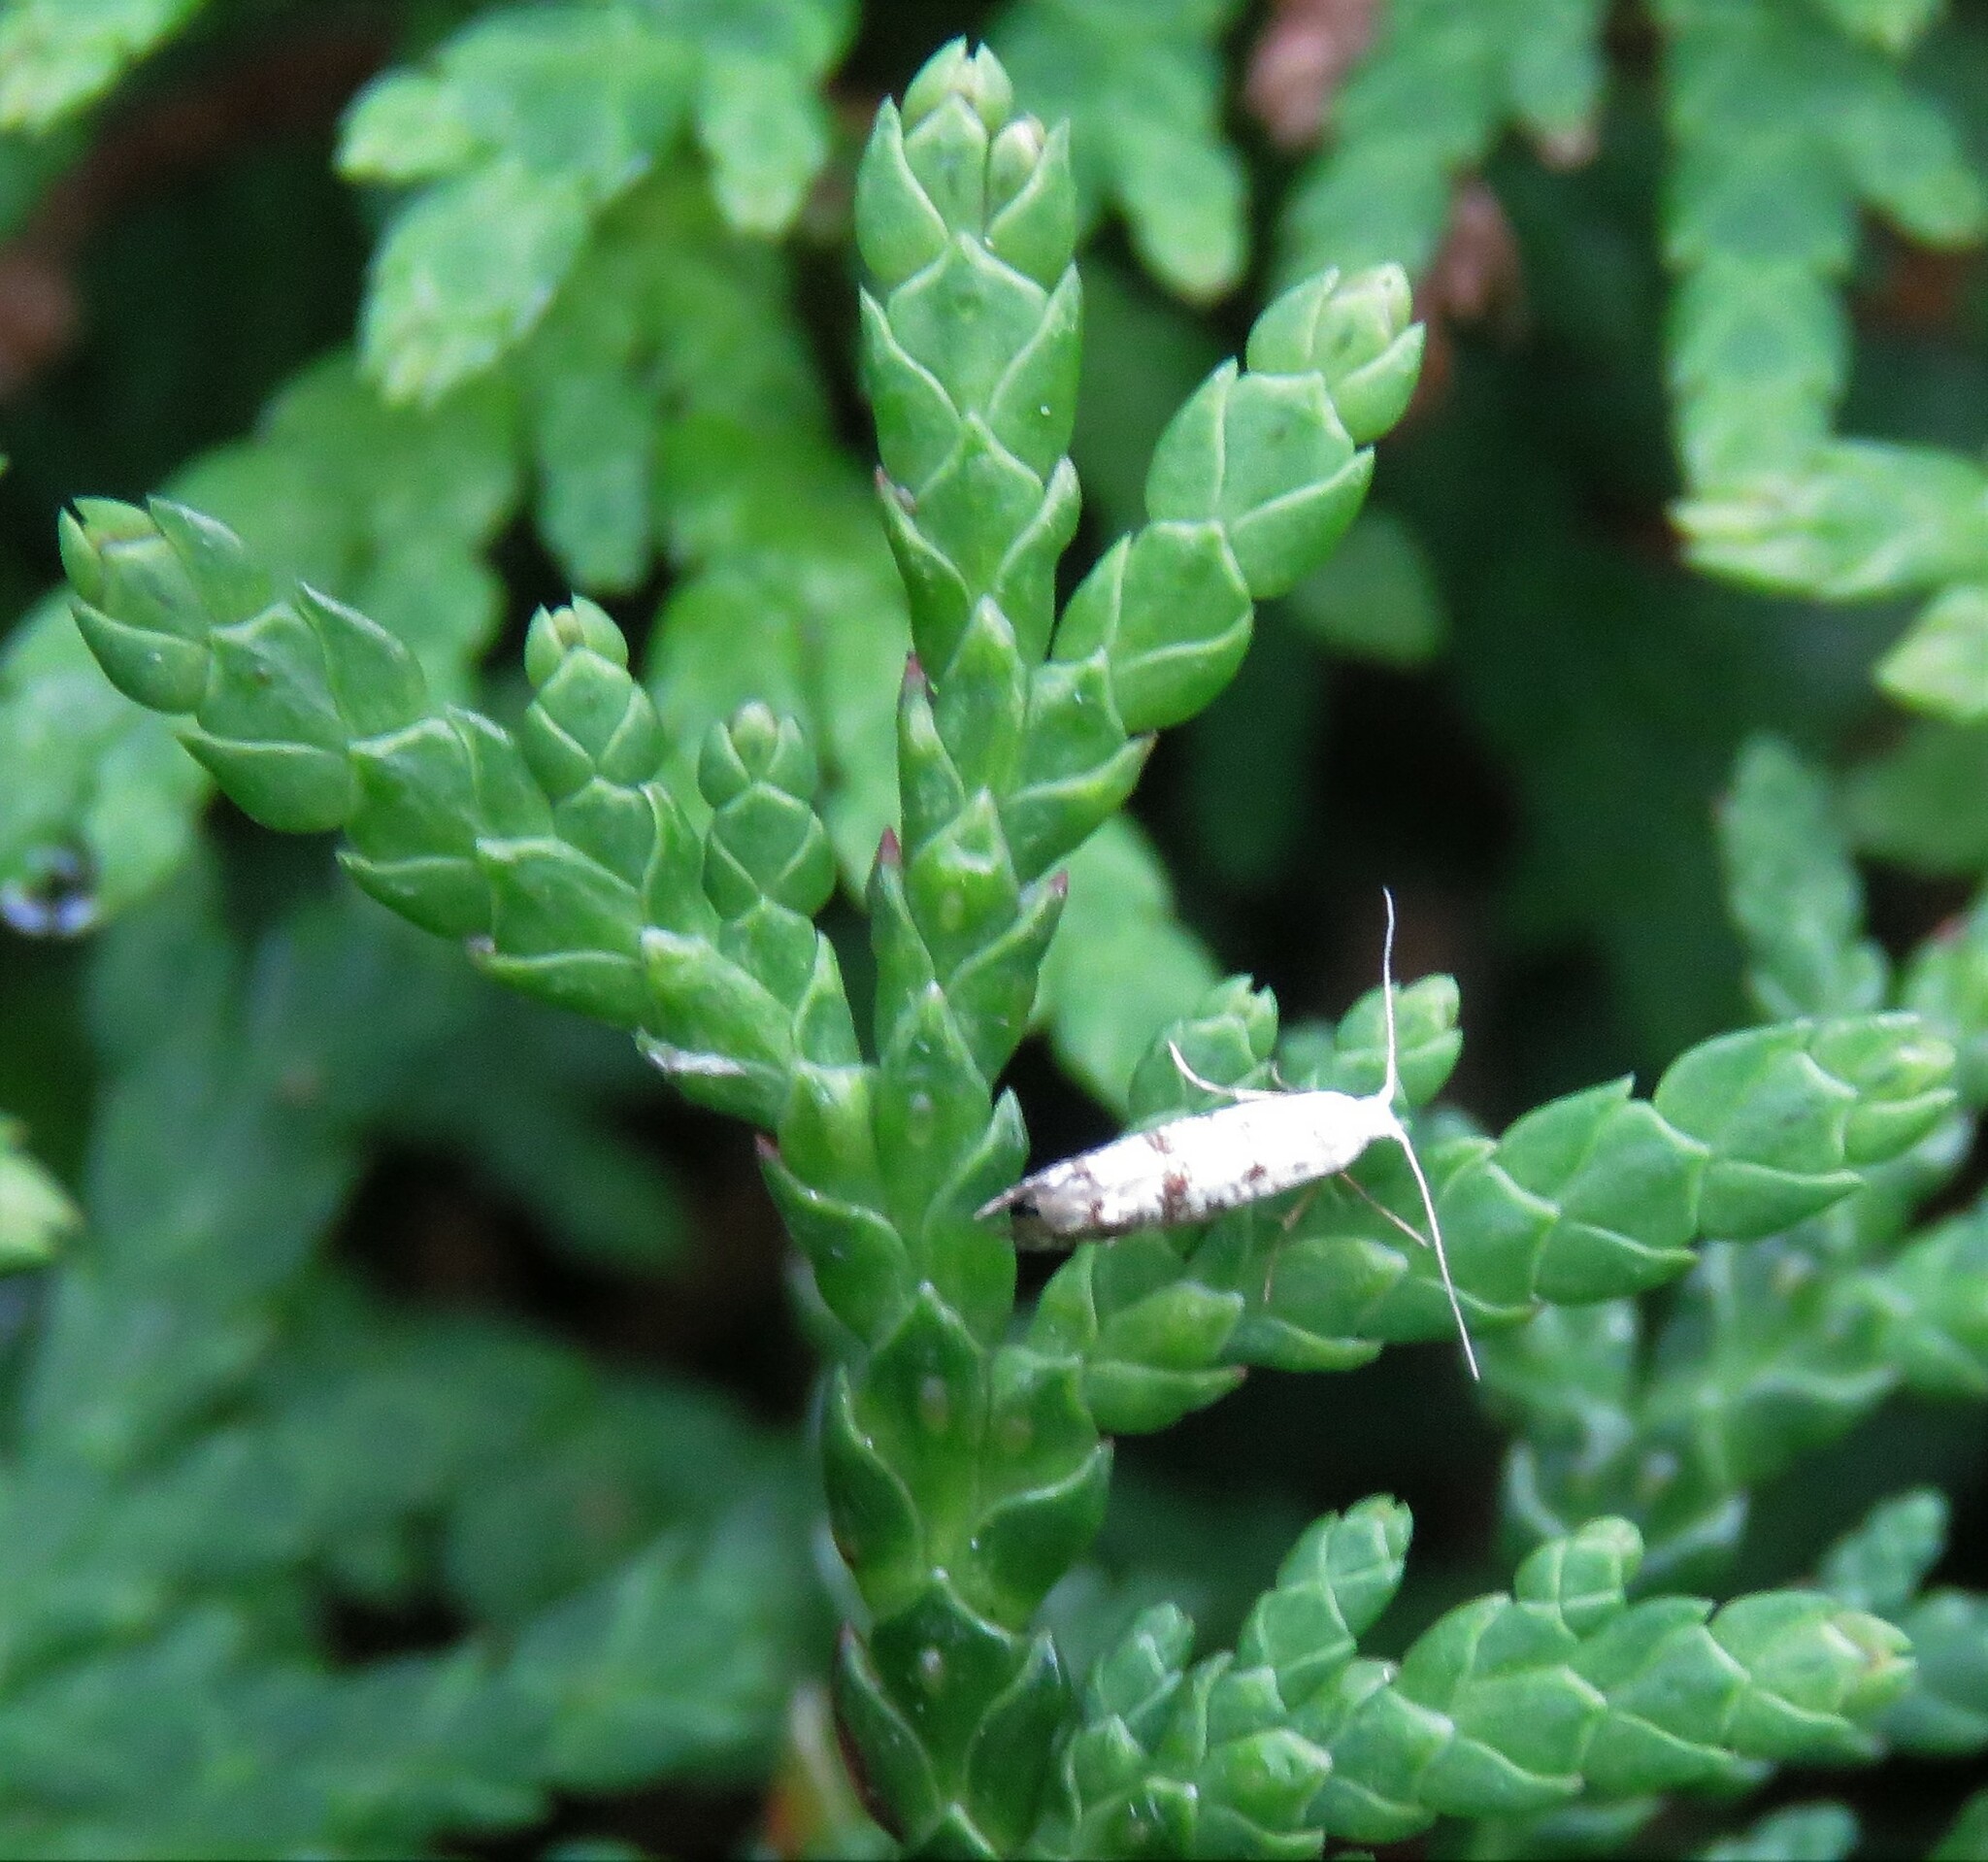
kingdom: Animalia
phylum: Arthropoda
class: Insecta
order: Lepidoptera
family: Argyresthiidae
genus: Argyresthia
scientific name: Argyresthia thuiella
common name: Arborvitae leafminer
